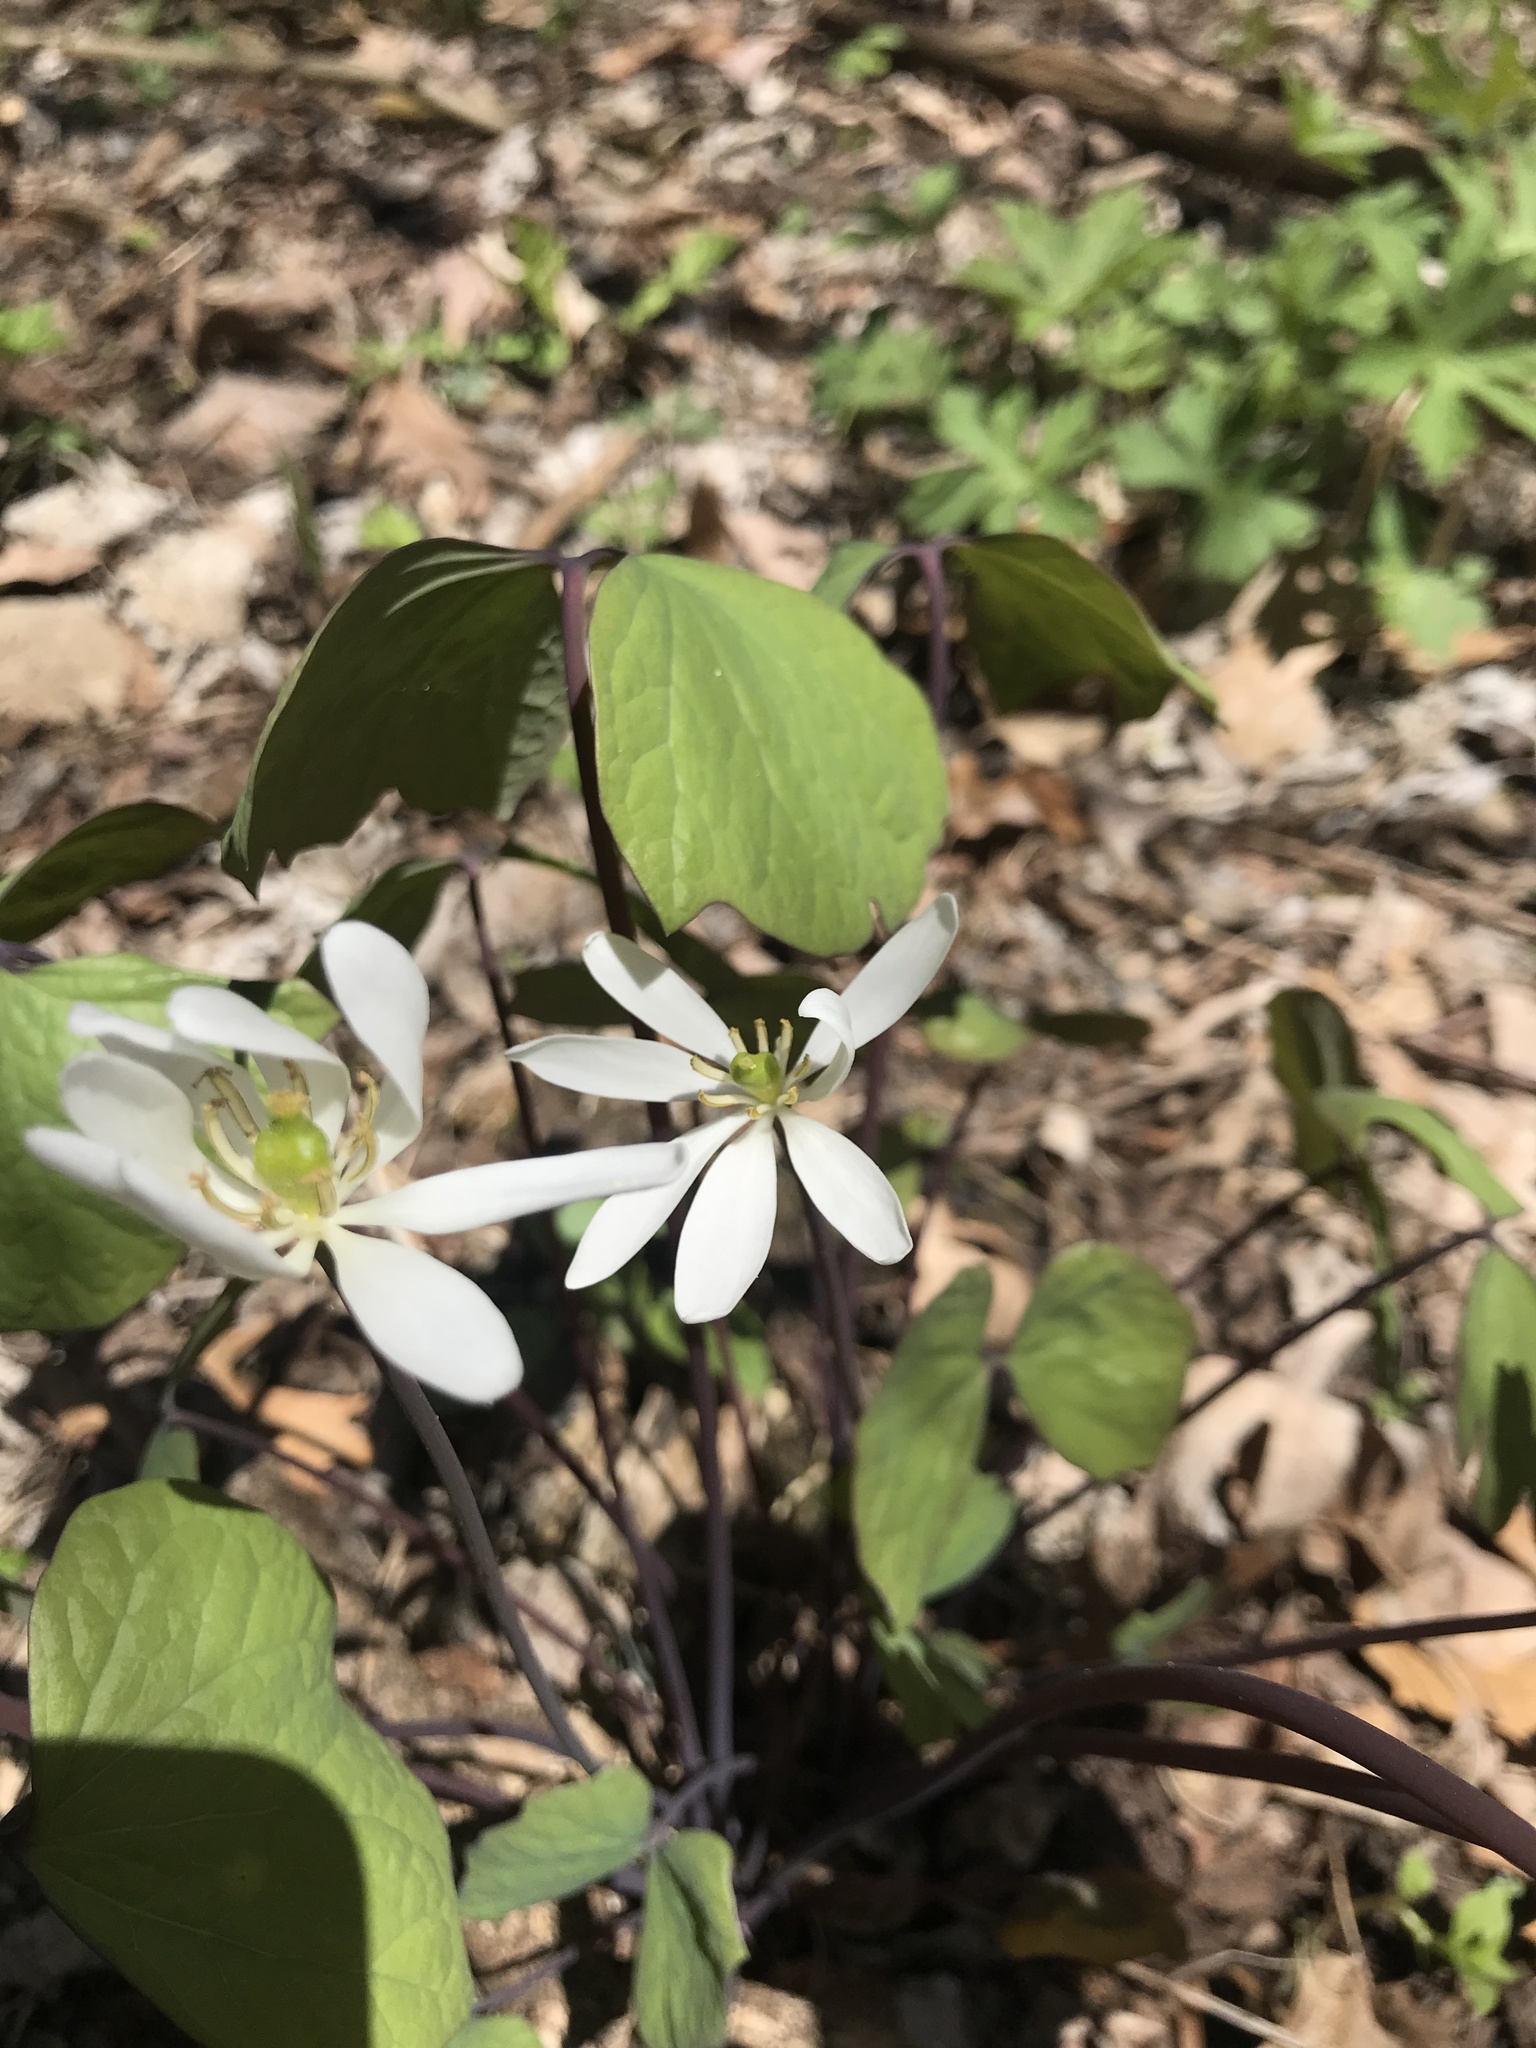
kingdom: Plantae
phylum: Tracheophyta
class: Magnoliopsida
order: Ranunculales
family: Berberidaceae
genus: Jeffersonia
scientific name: Jeffersonia diphylla
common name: Rheumatism-root
